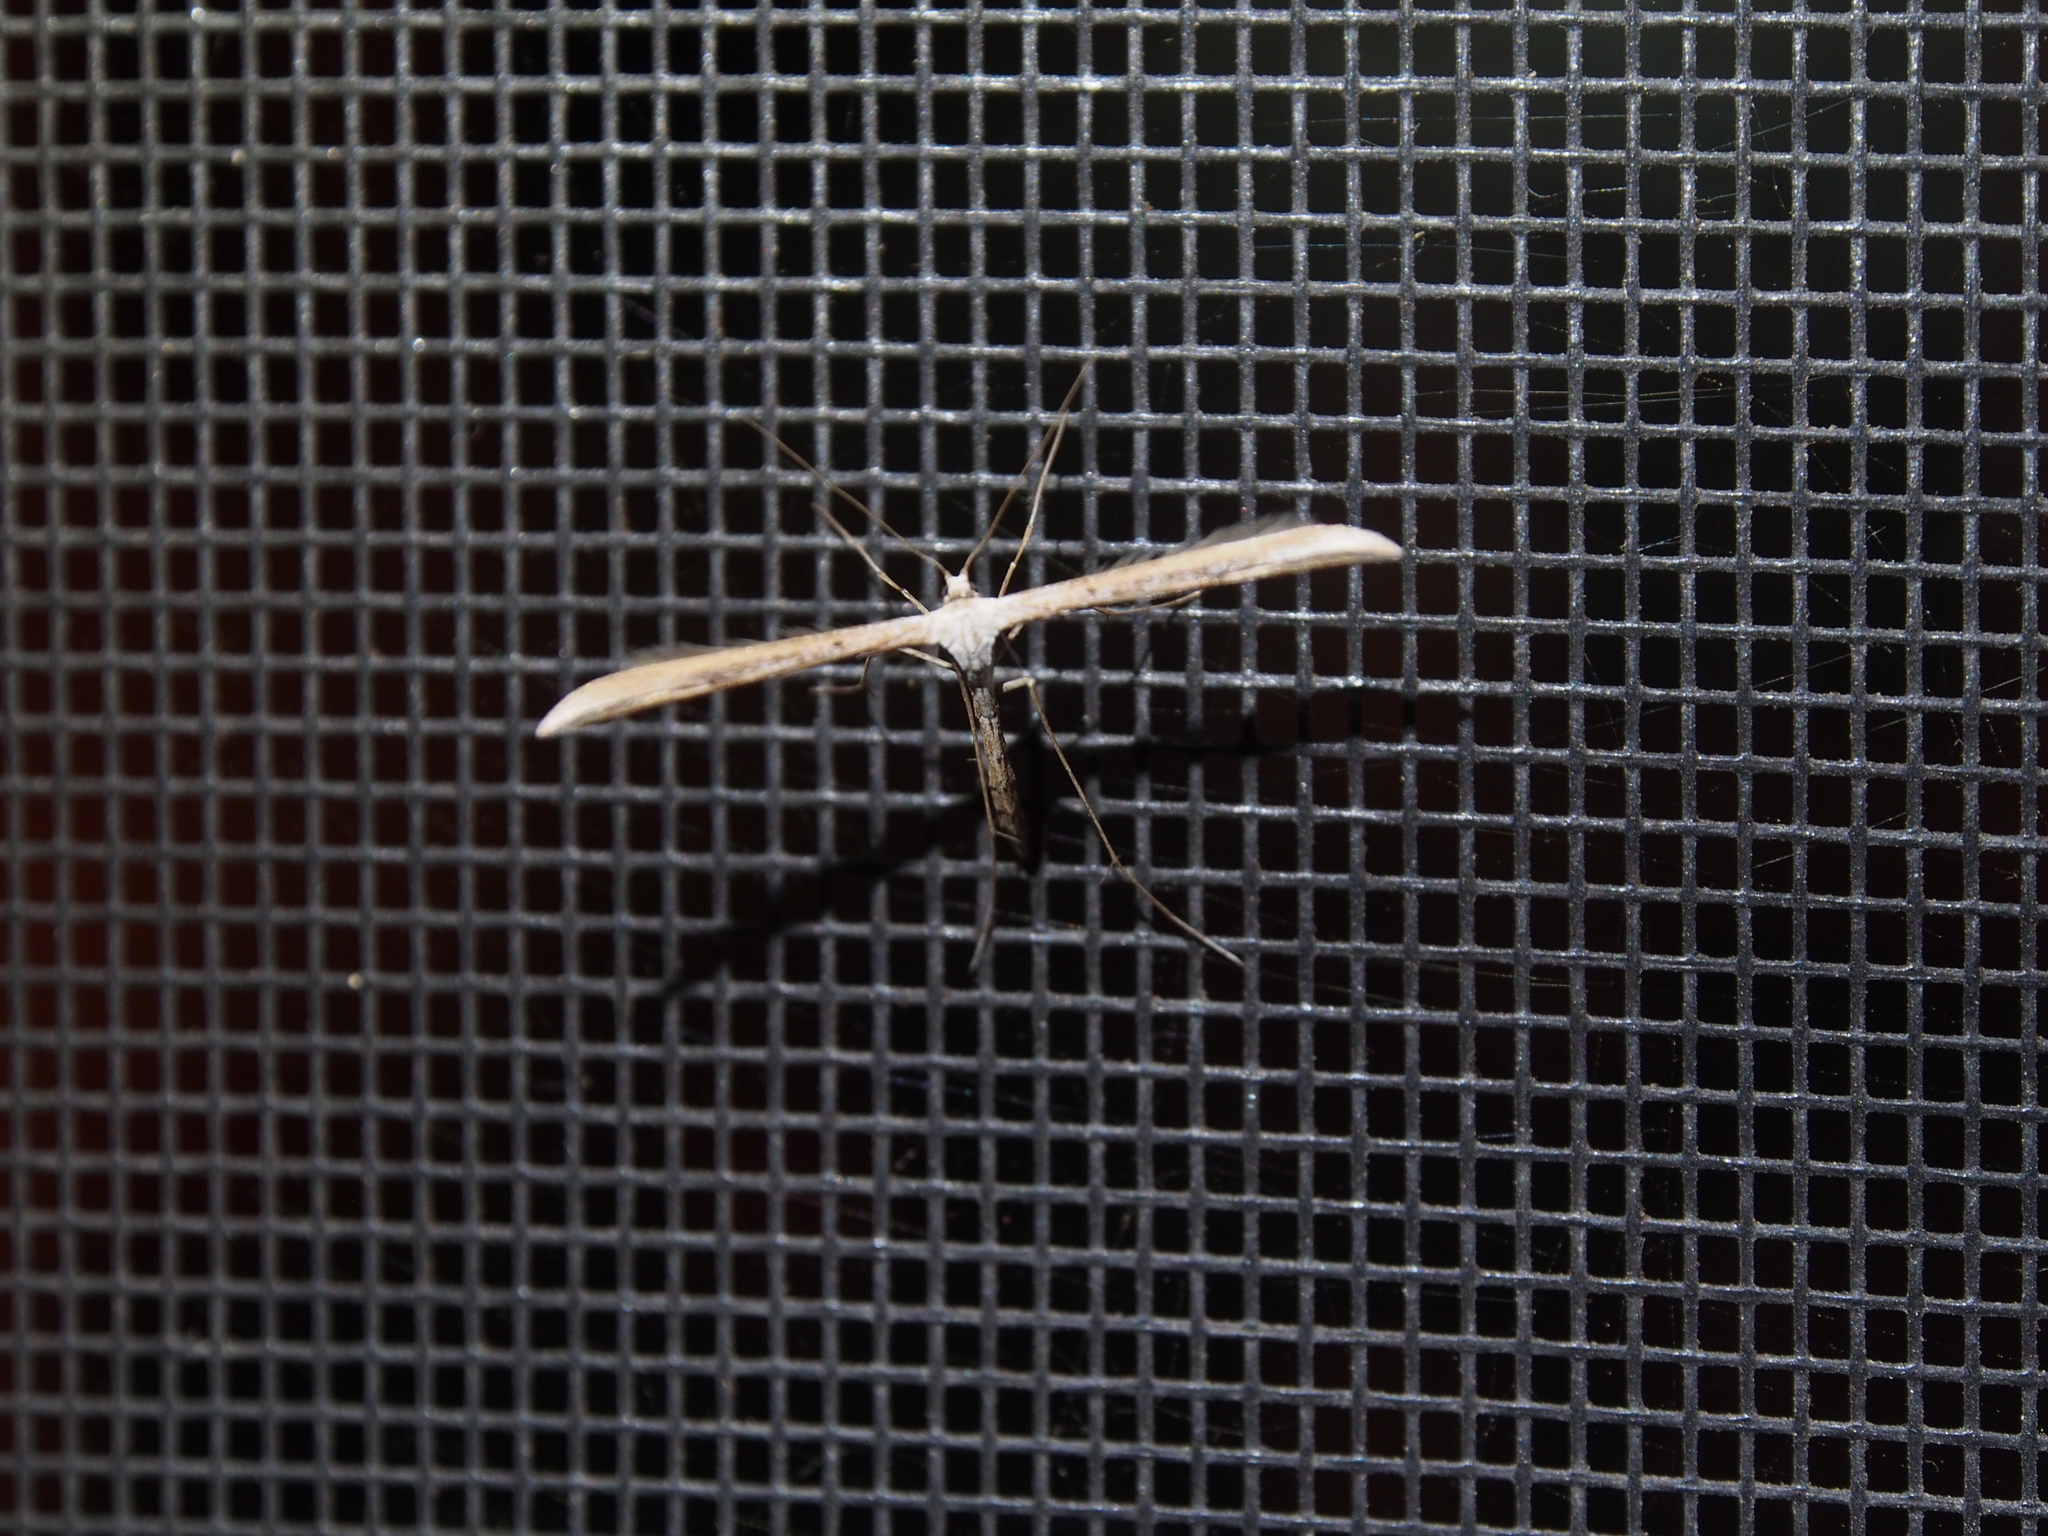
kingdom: Animalia
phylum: Arthropoda
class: Insecta
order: Lepidoptera
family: Pterophoridae
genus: Emmelina
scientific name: Emmelina monodactyla
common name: Common plume
